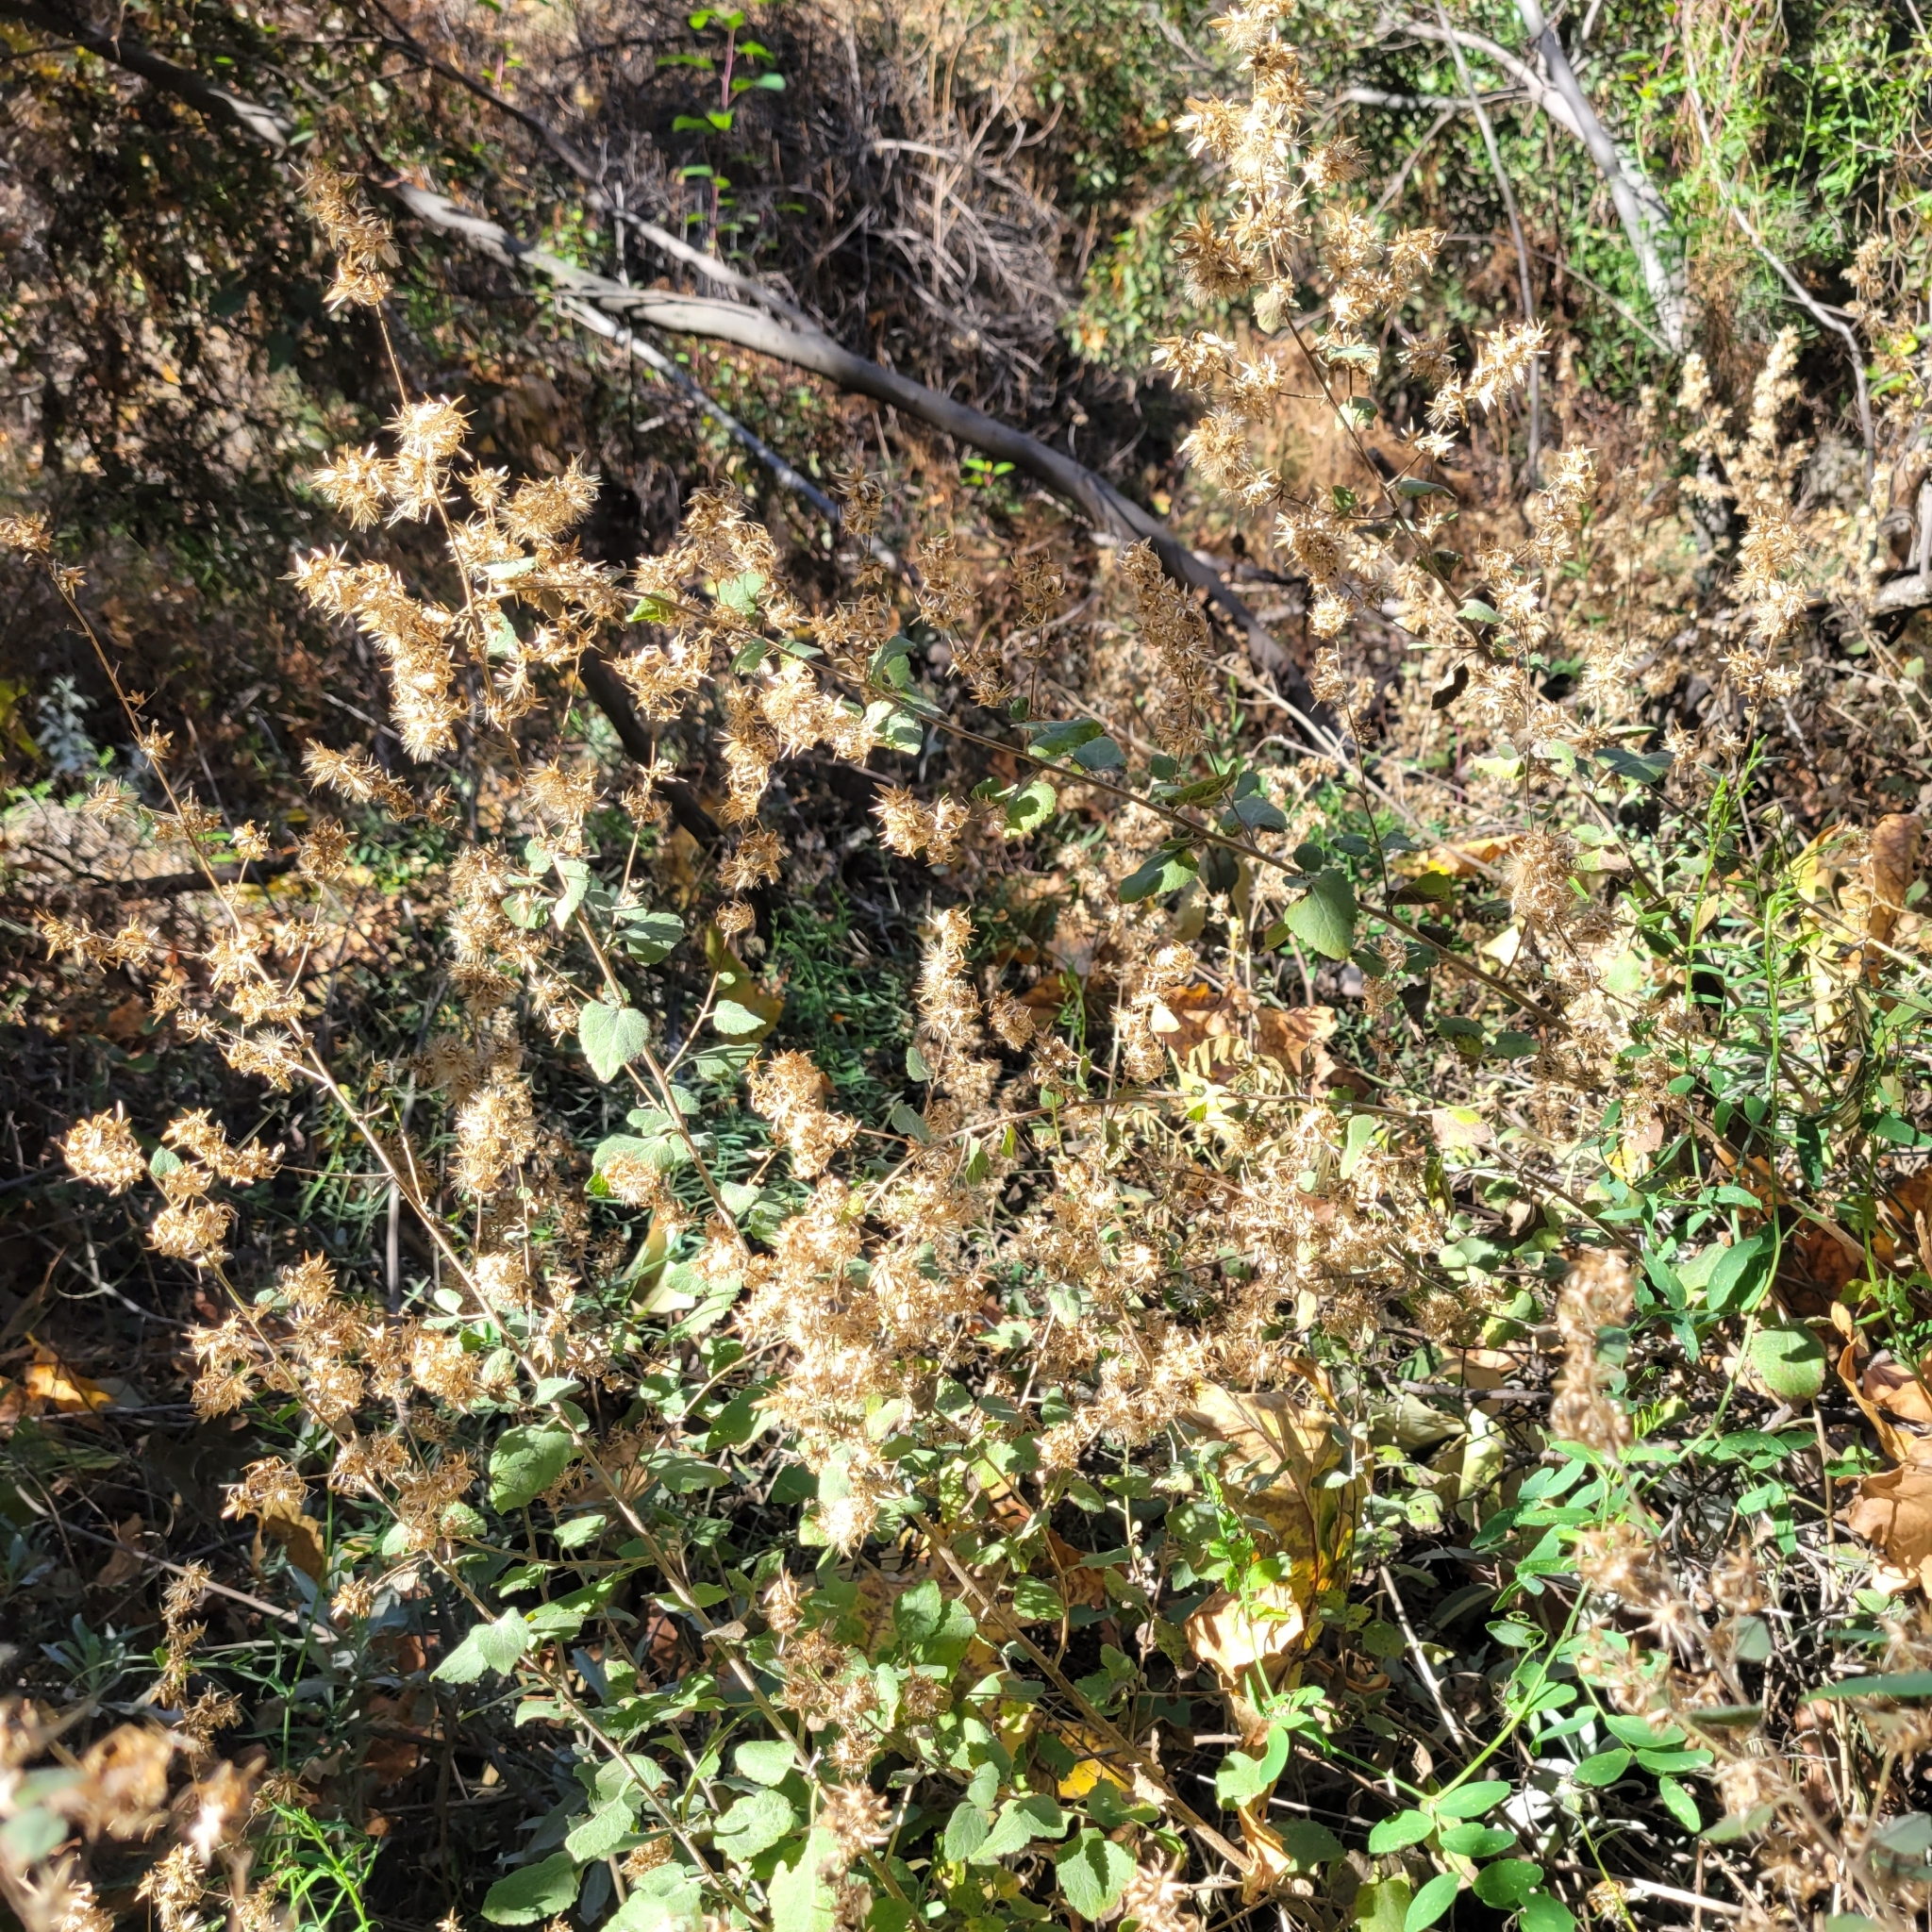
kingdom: Plantae
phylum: Tracheophyta
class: Magnoliopsida
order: Asterales
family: Asteraceae
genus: Brickellia
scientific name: Brickellia californica
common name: California brickellbush
